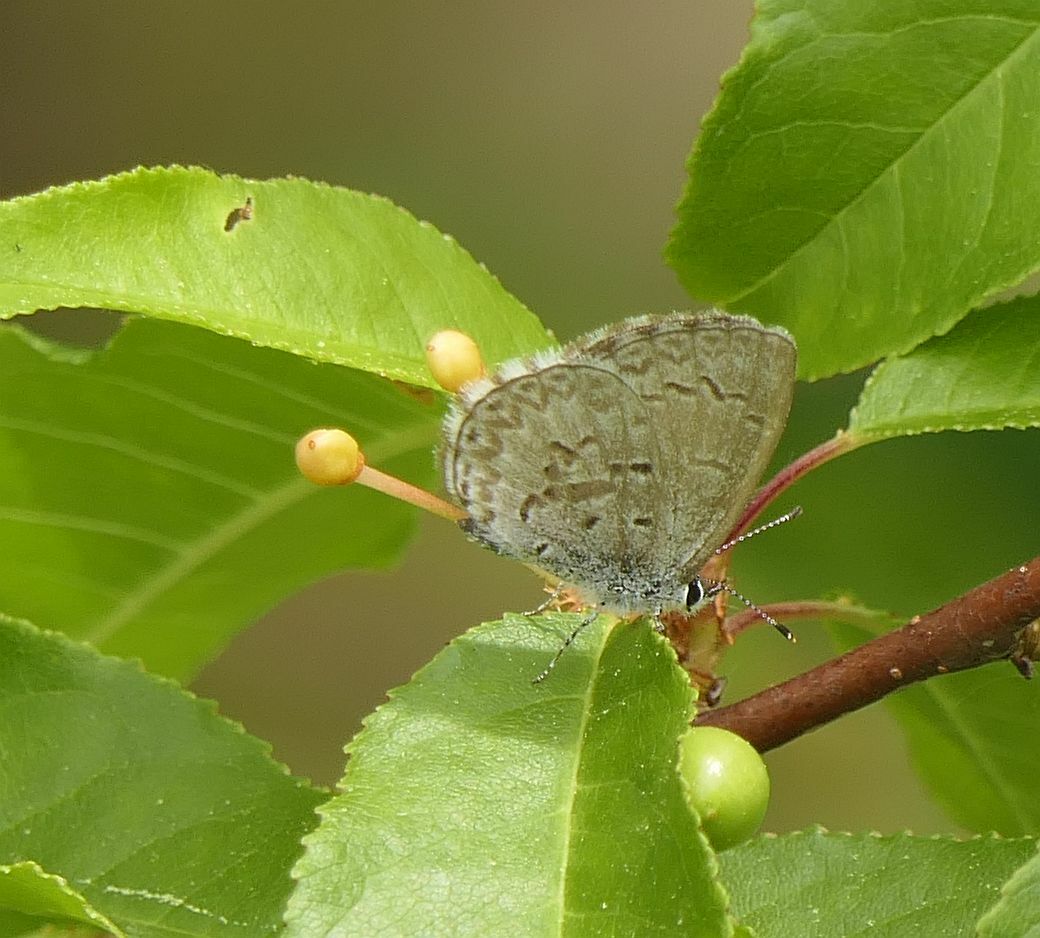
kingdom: Animalia
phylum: Arthropoda
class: Insecta
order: Lepidoptera
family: Lycaenidae
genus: Celastrina
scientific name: Celastrina lucia
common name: Lucia azure
